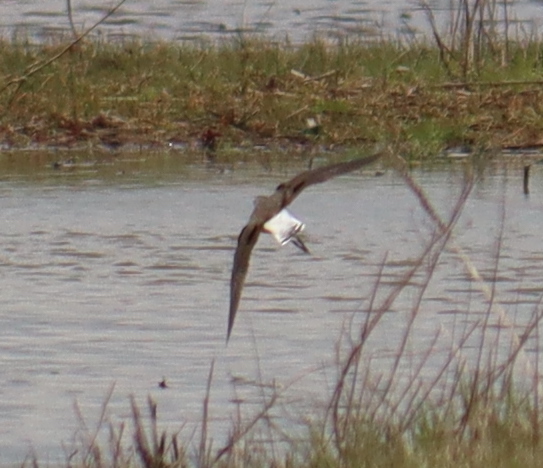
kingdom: Animalia
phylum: Chordata
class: Aves
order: Charadriiformes
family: Scolopacidae
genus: Tringa
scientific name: Tringa ochropus
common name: Green sandpiper
